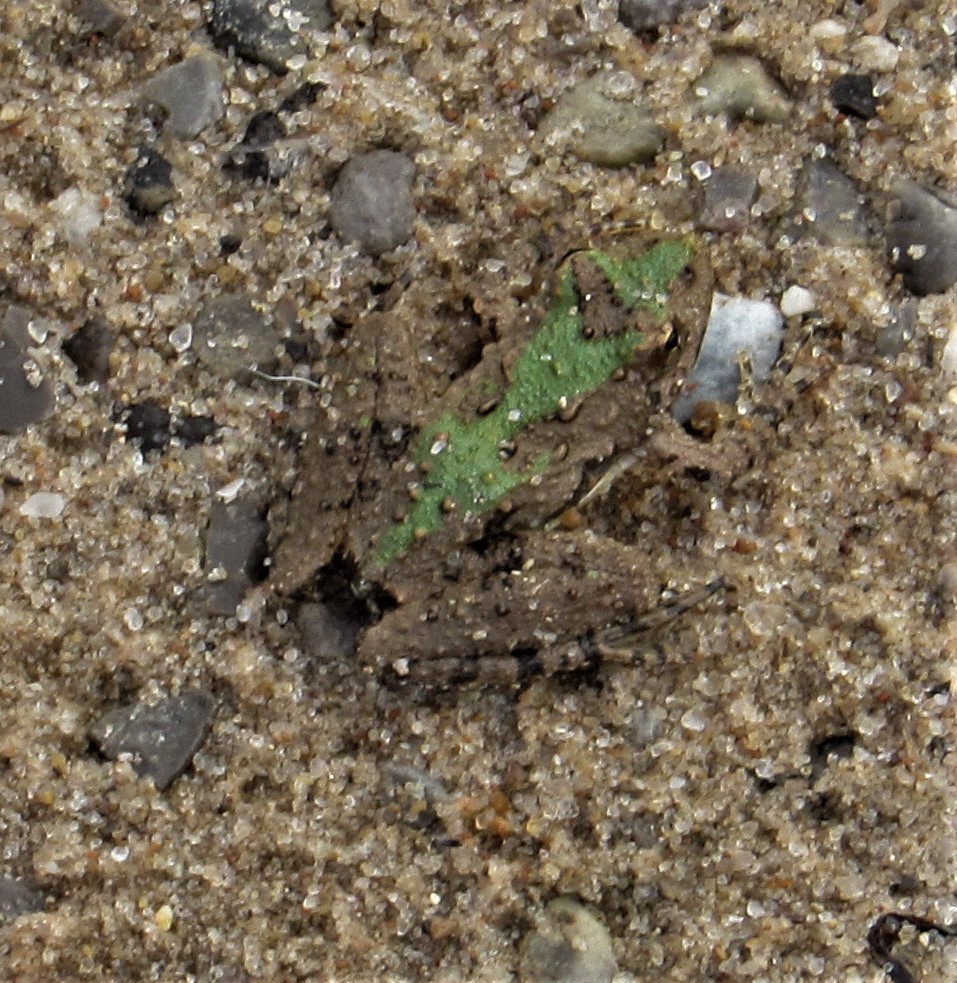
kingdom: Animalia
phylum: Chordata
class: Amphibia
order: Anura
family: Hylidae
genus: Acris
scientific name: Acris blanchardi
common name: Blanchard's cricket frog
